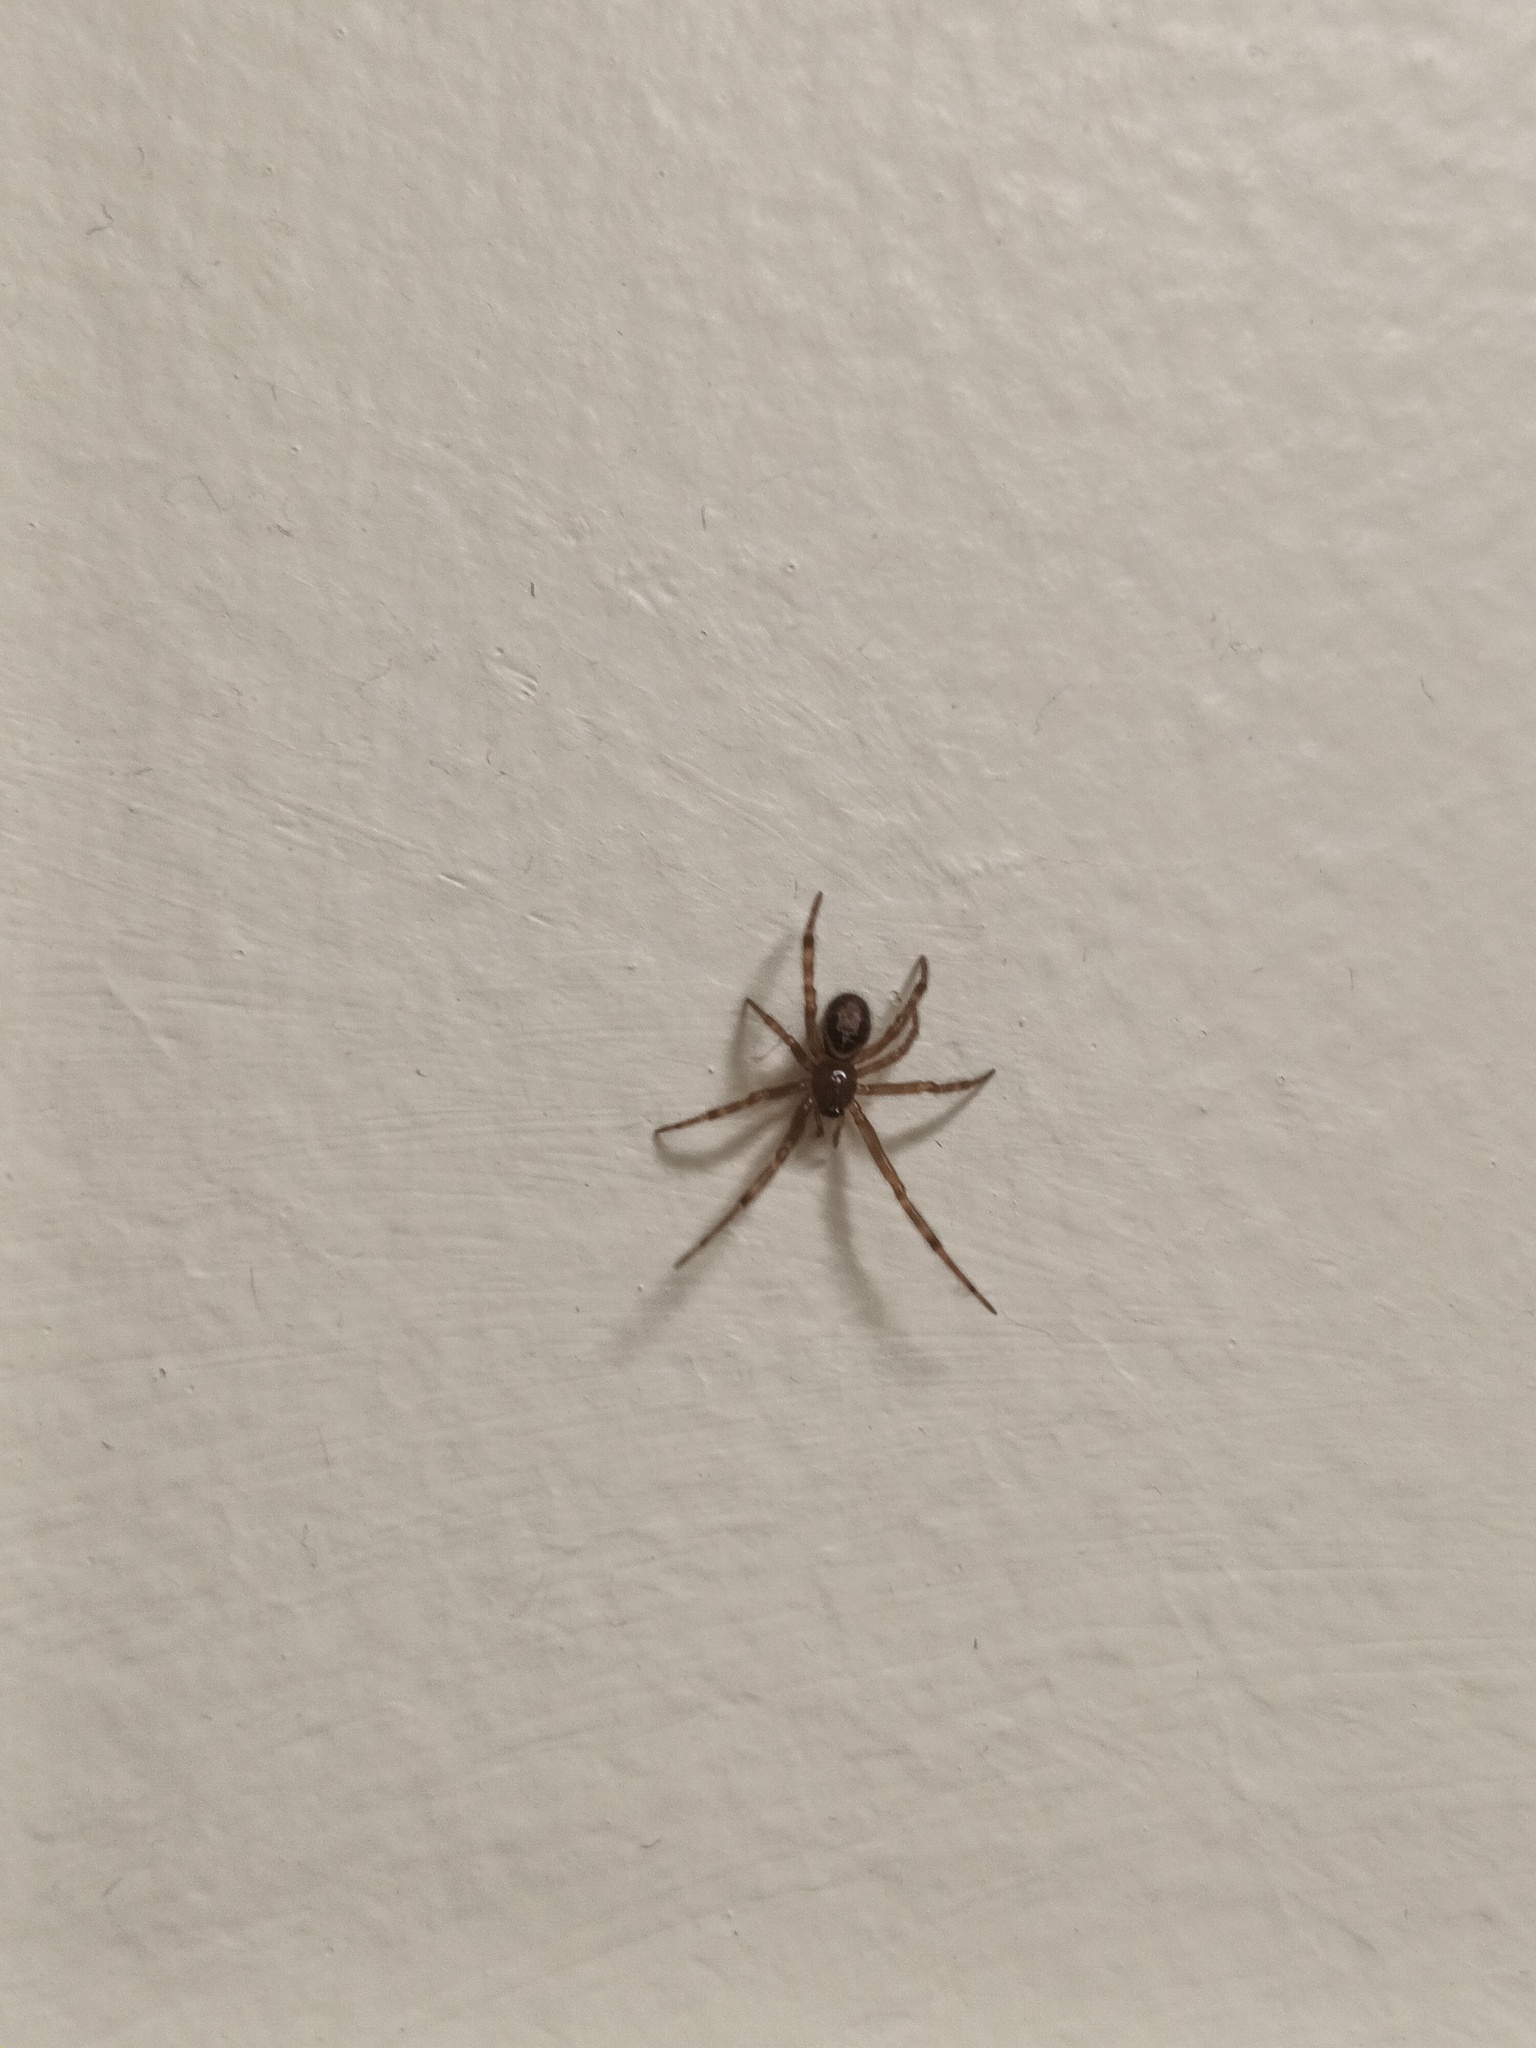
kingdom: Animalia
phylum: Arthropoda
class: Arachnida
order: Araneae
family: Theridiidae
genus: Steatoda
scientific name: Steatoda nobilis
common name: Cobweb weaver
